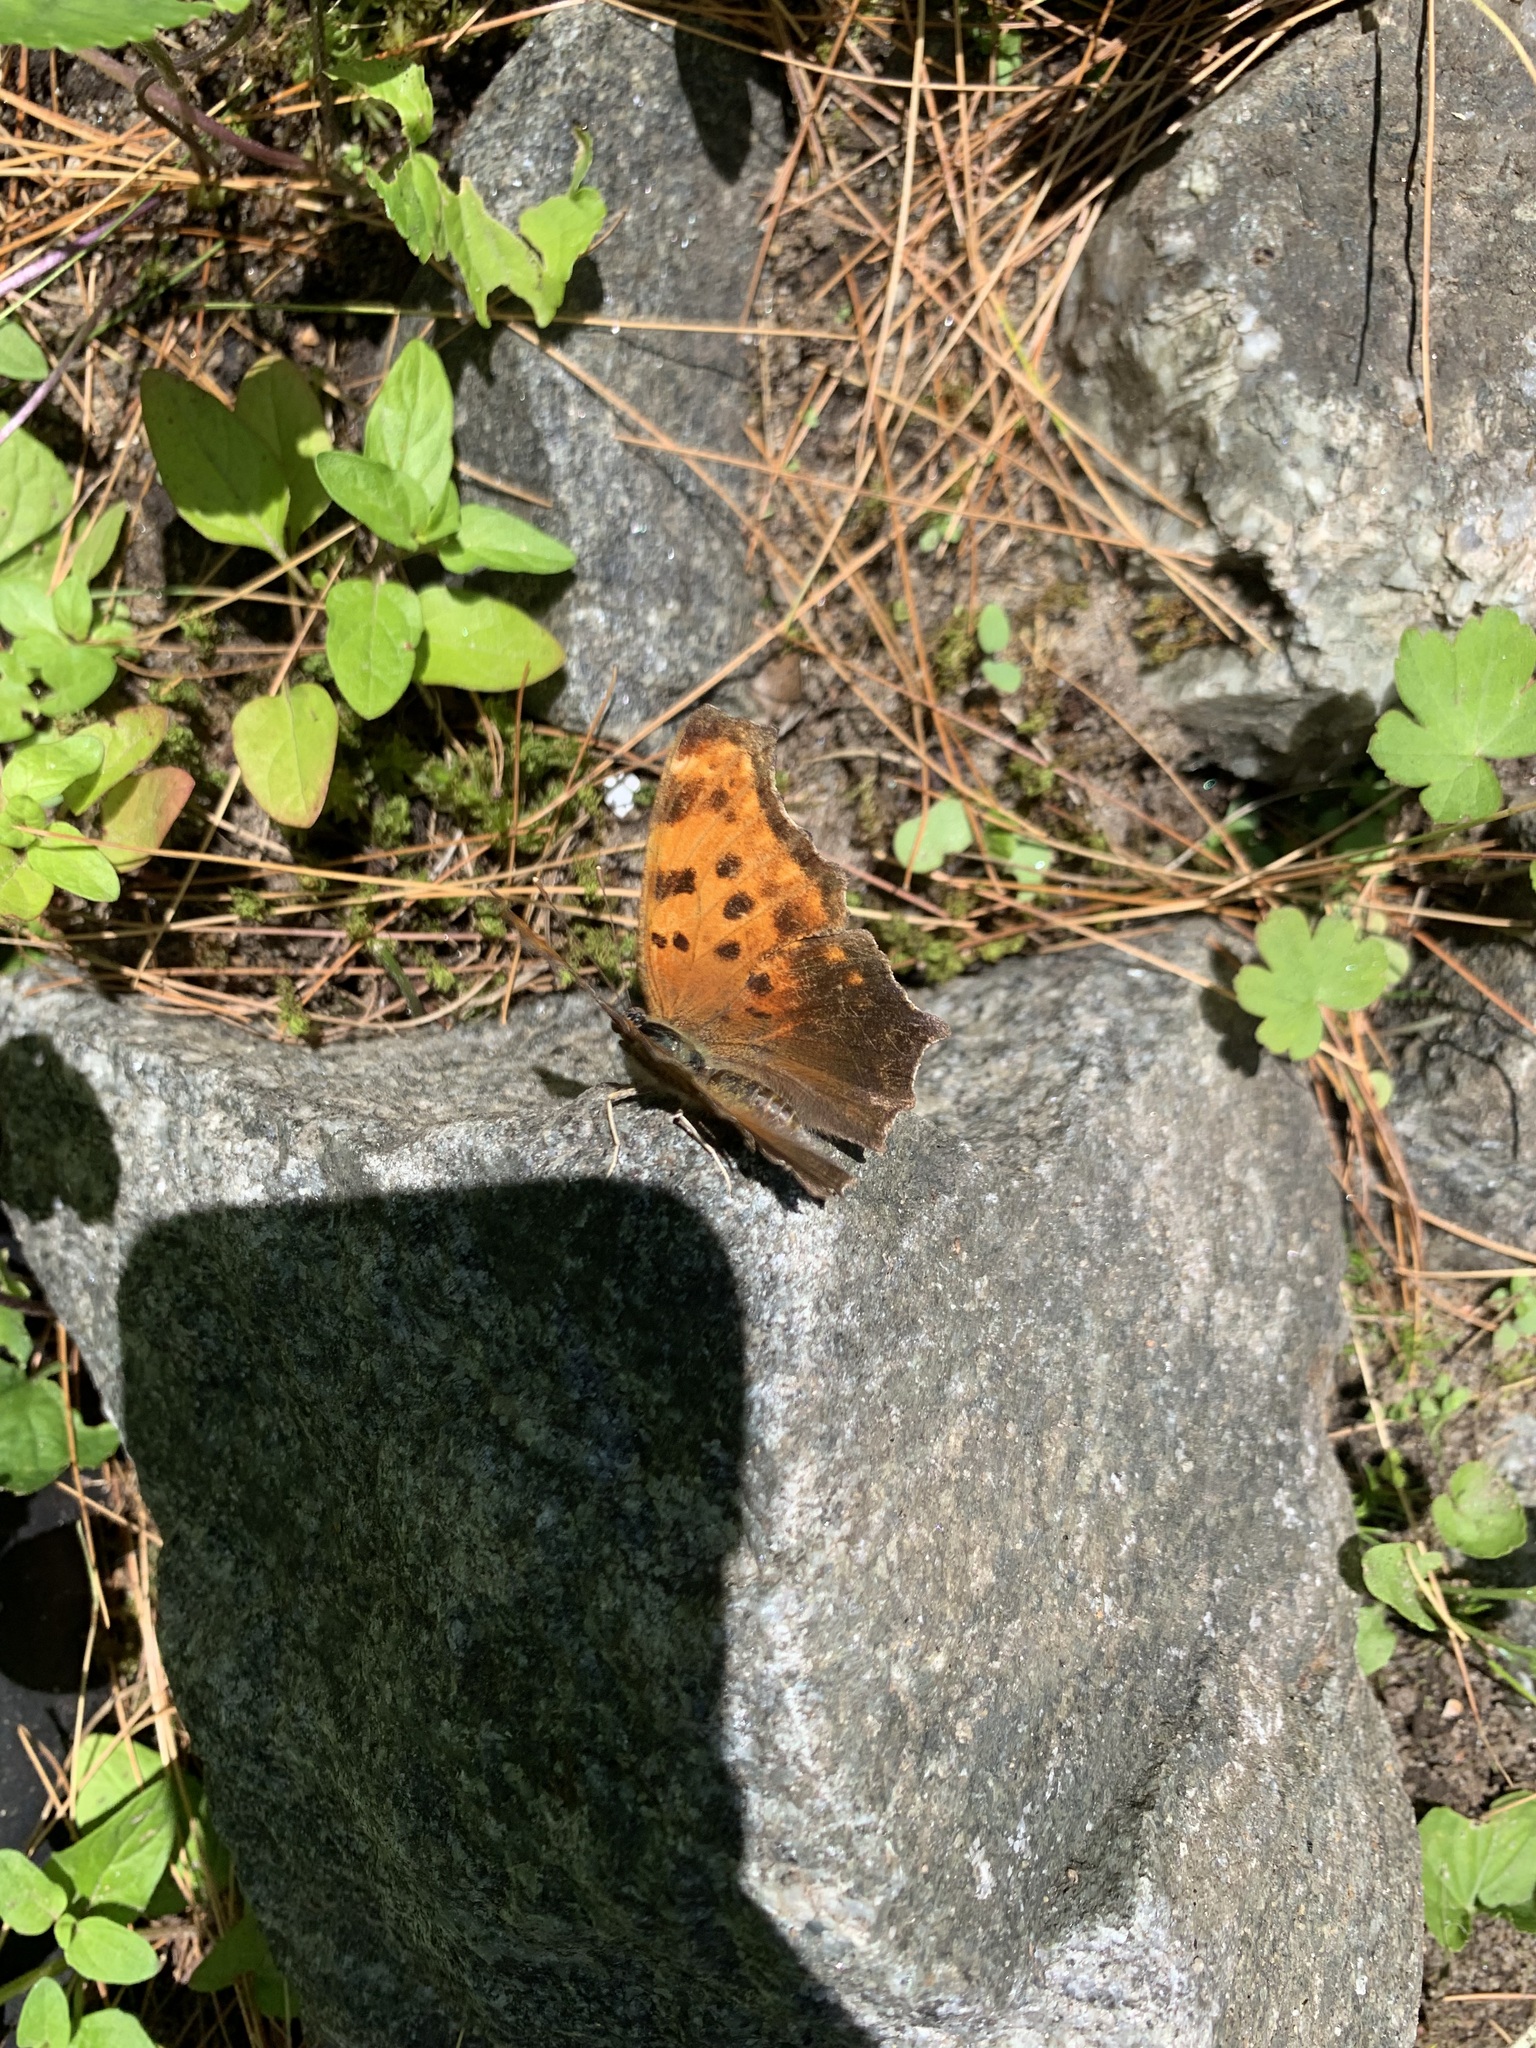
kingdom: Animalia
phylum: Arthropoda
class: Insecta
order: Lepidoptera
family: Nymphalidae
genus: Polygonia
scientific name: Polygonia comma
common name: Eastern comma
